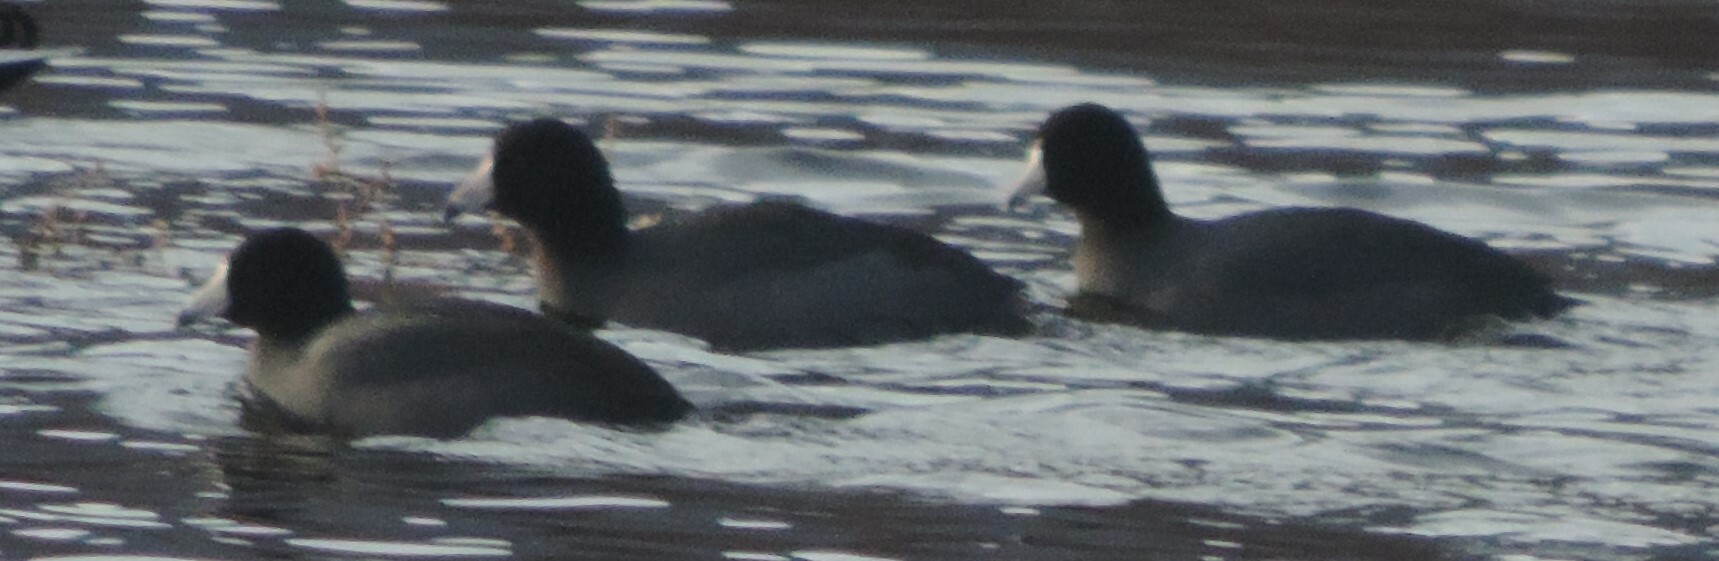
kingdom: Animalia
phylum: Chordata
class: Aves
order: Gruiformes
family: Rallidae
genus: Fulica
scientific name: Fulica americana
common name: American coot
